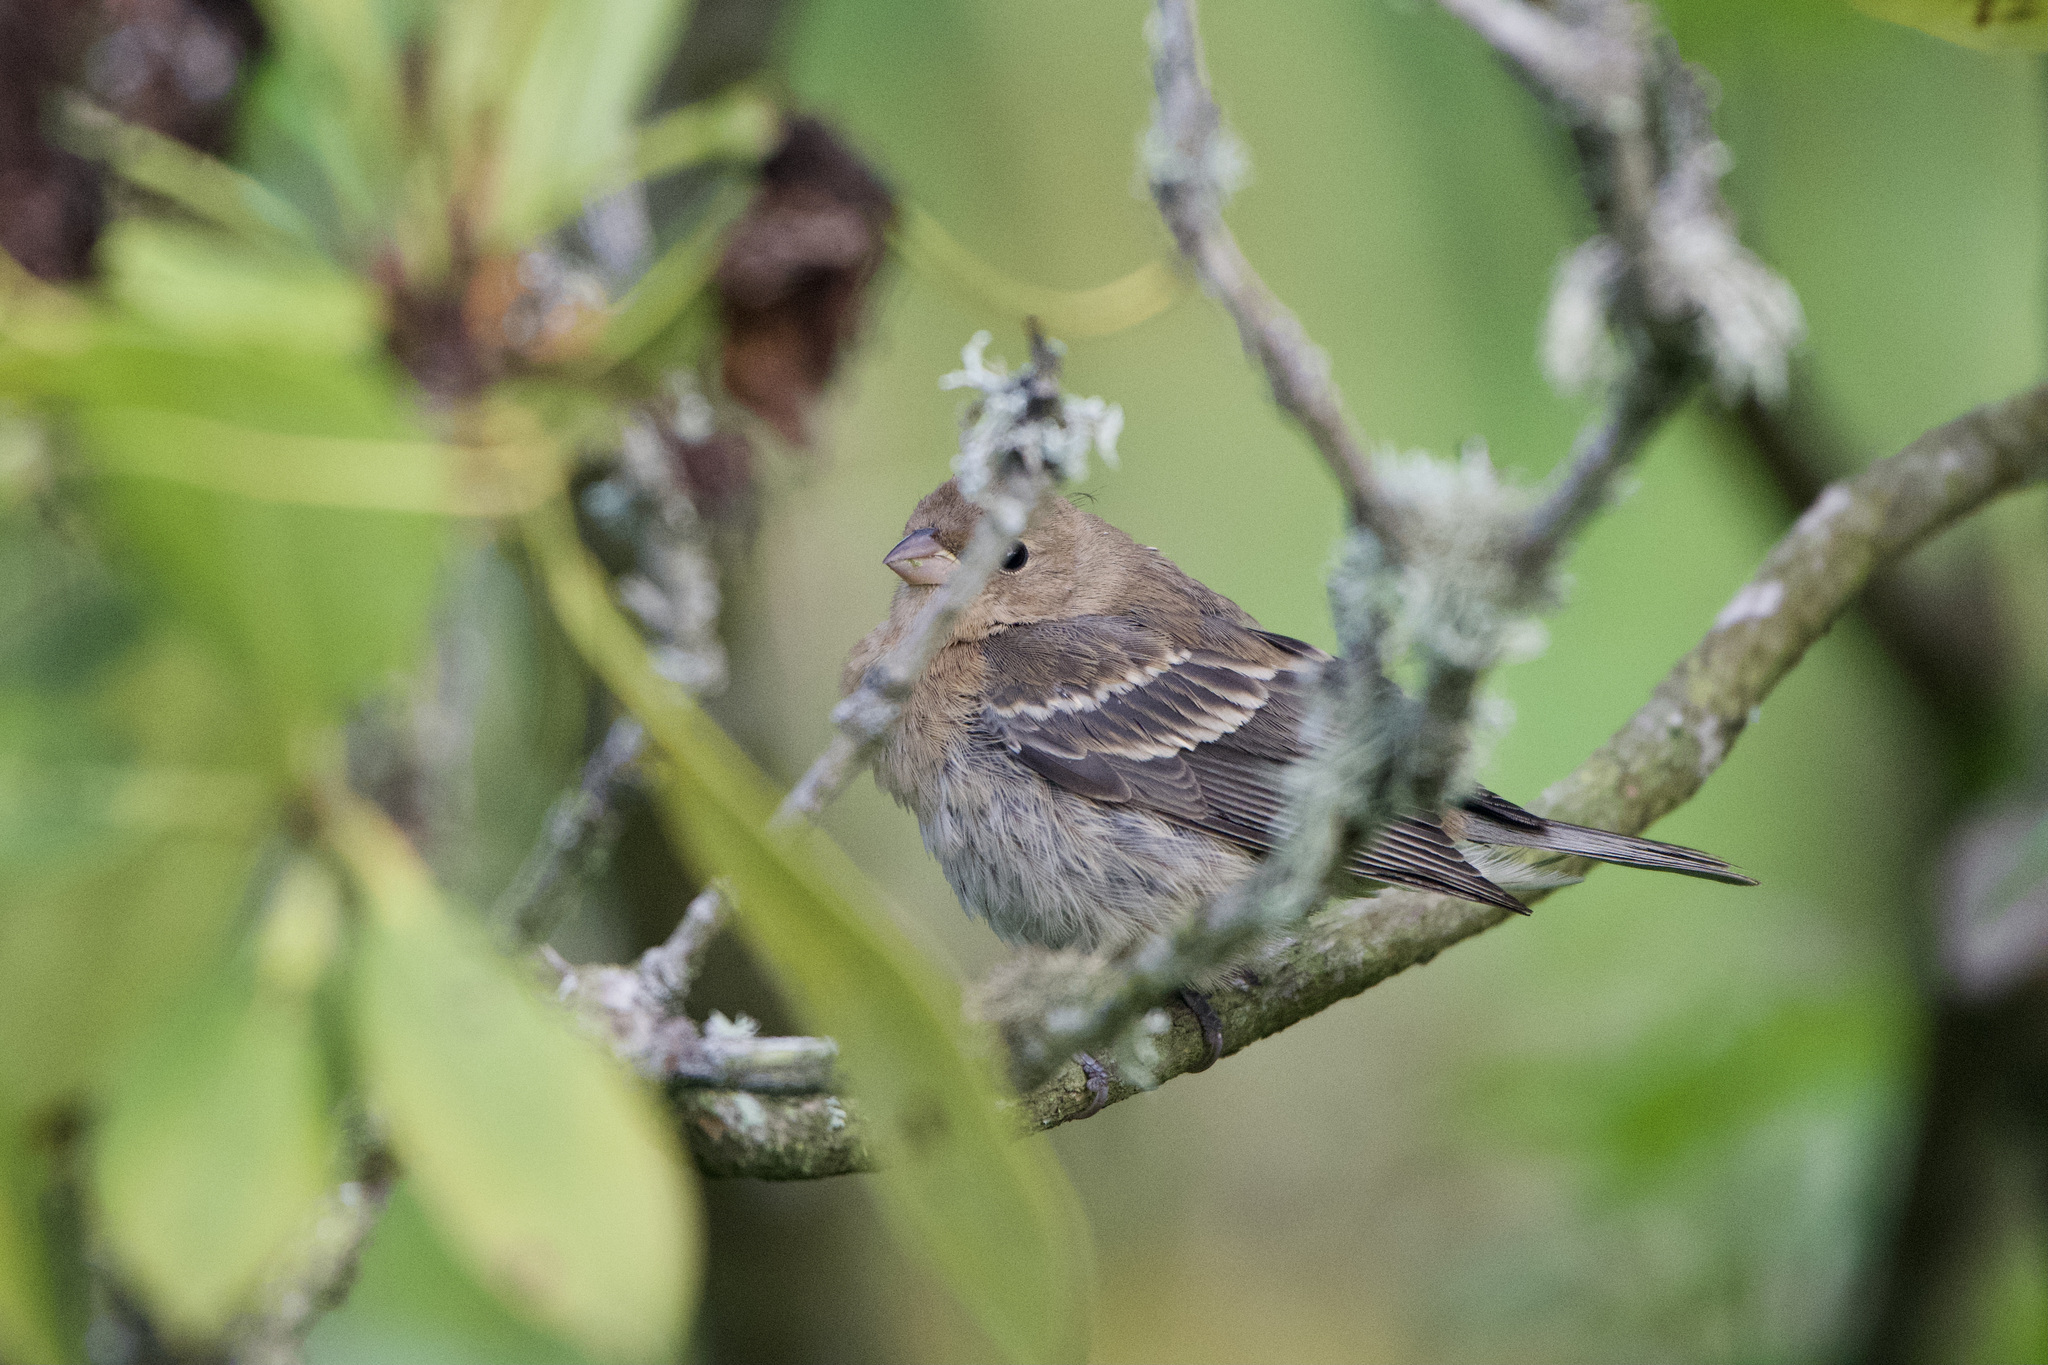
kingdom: Animalia
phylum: Chordata
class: Aves
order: Passeriformes
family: Cardinalidae
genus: Passerina
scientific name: Passerina amoena
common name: Lazuli bunting
